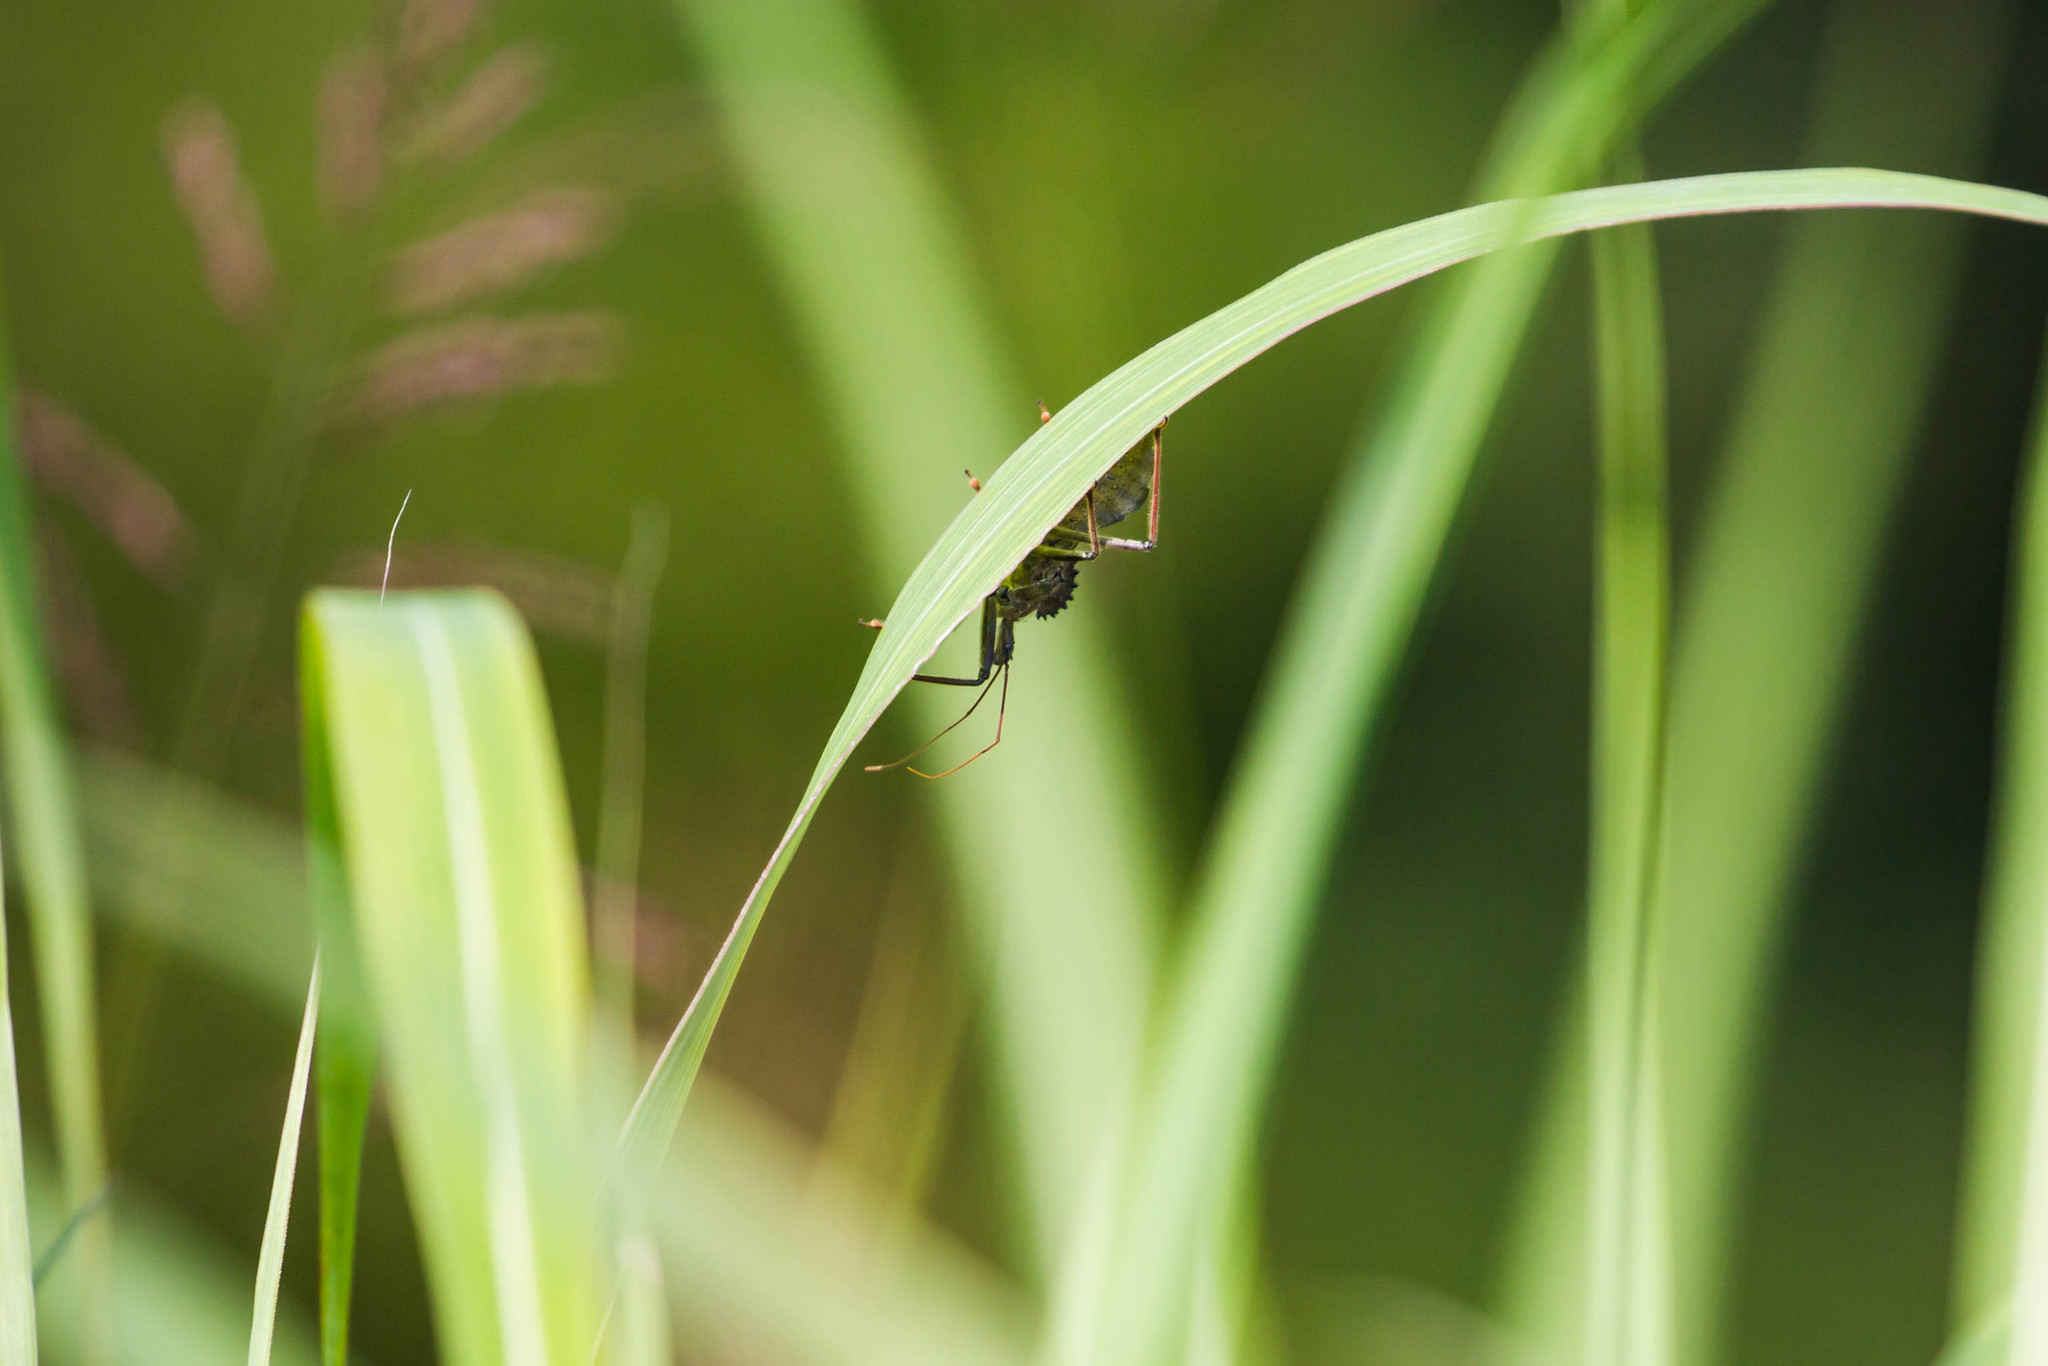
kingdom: Animalia
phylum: Arthropoda
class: Insecta
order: Hemiptera
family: Reduviidae
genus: Arilus
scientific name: Arilus cristatus
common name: North american wheel bug
